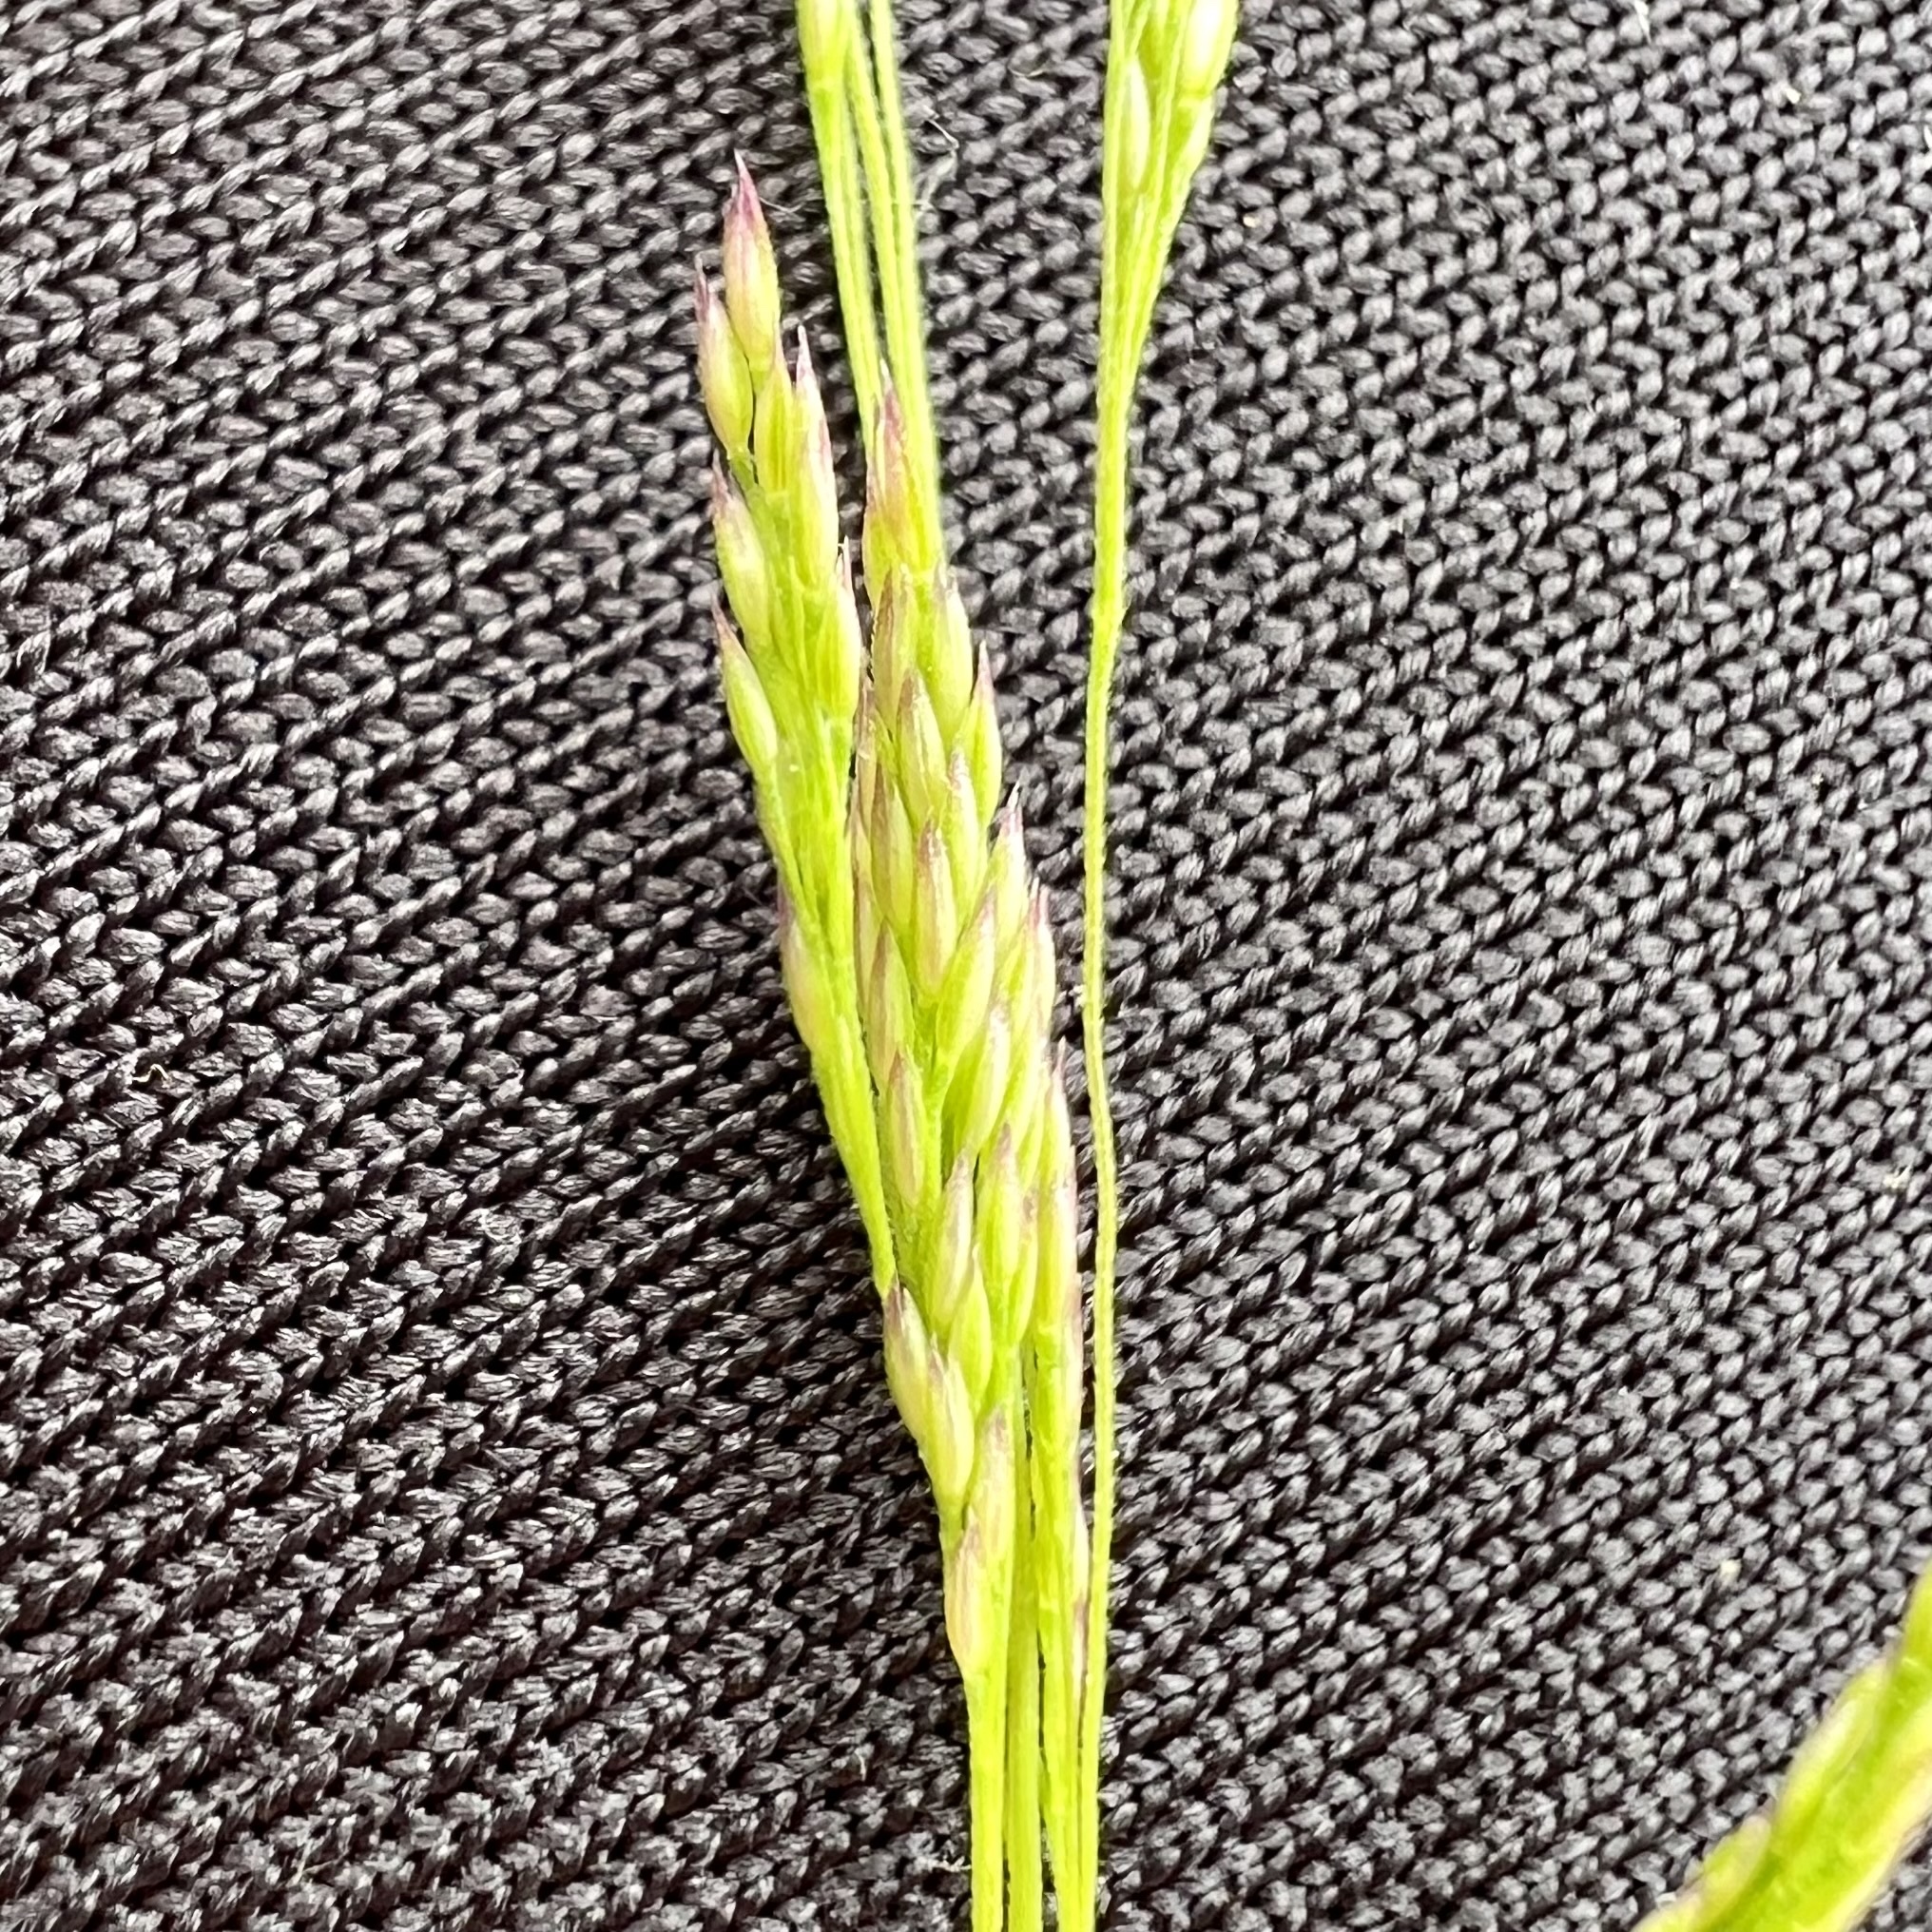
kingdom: Plantae
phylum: Tracheophyta
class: Liliopsida
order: Poales
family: Poaceae
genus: Agrostis
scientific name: Agrostis hyemalis
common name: Small bent
